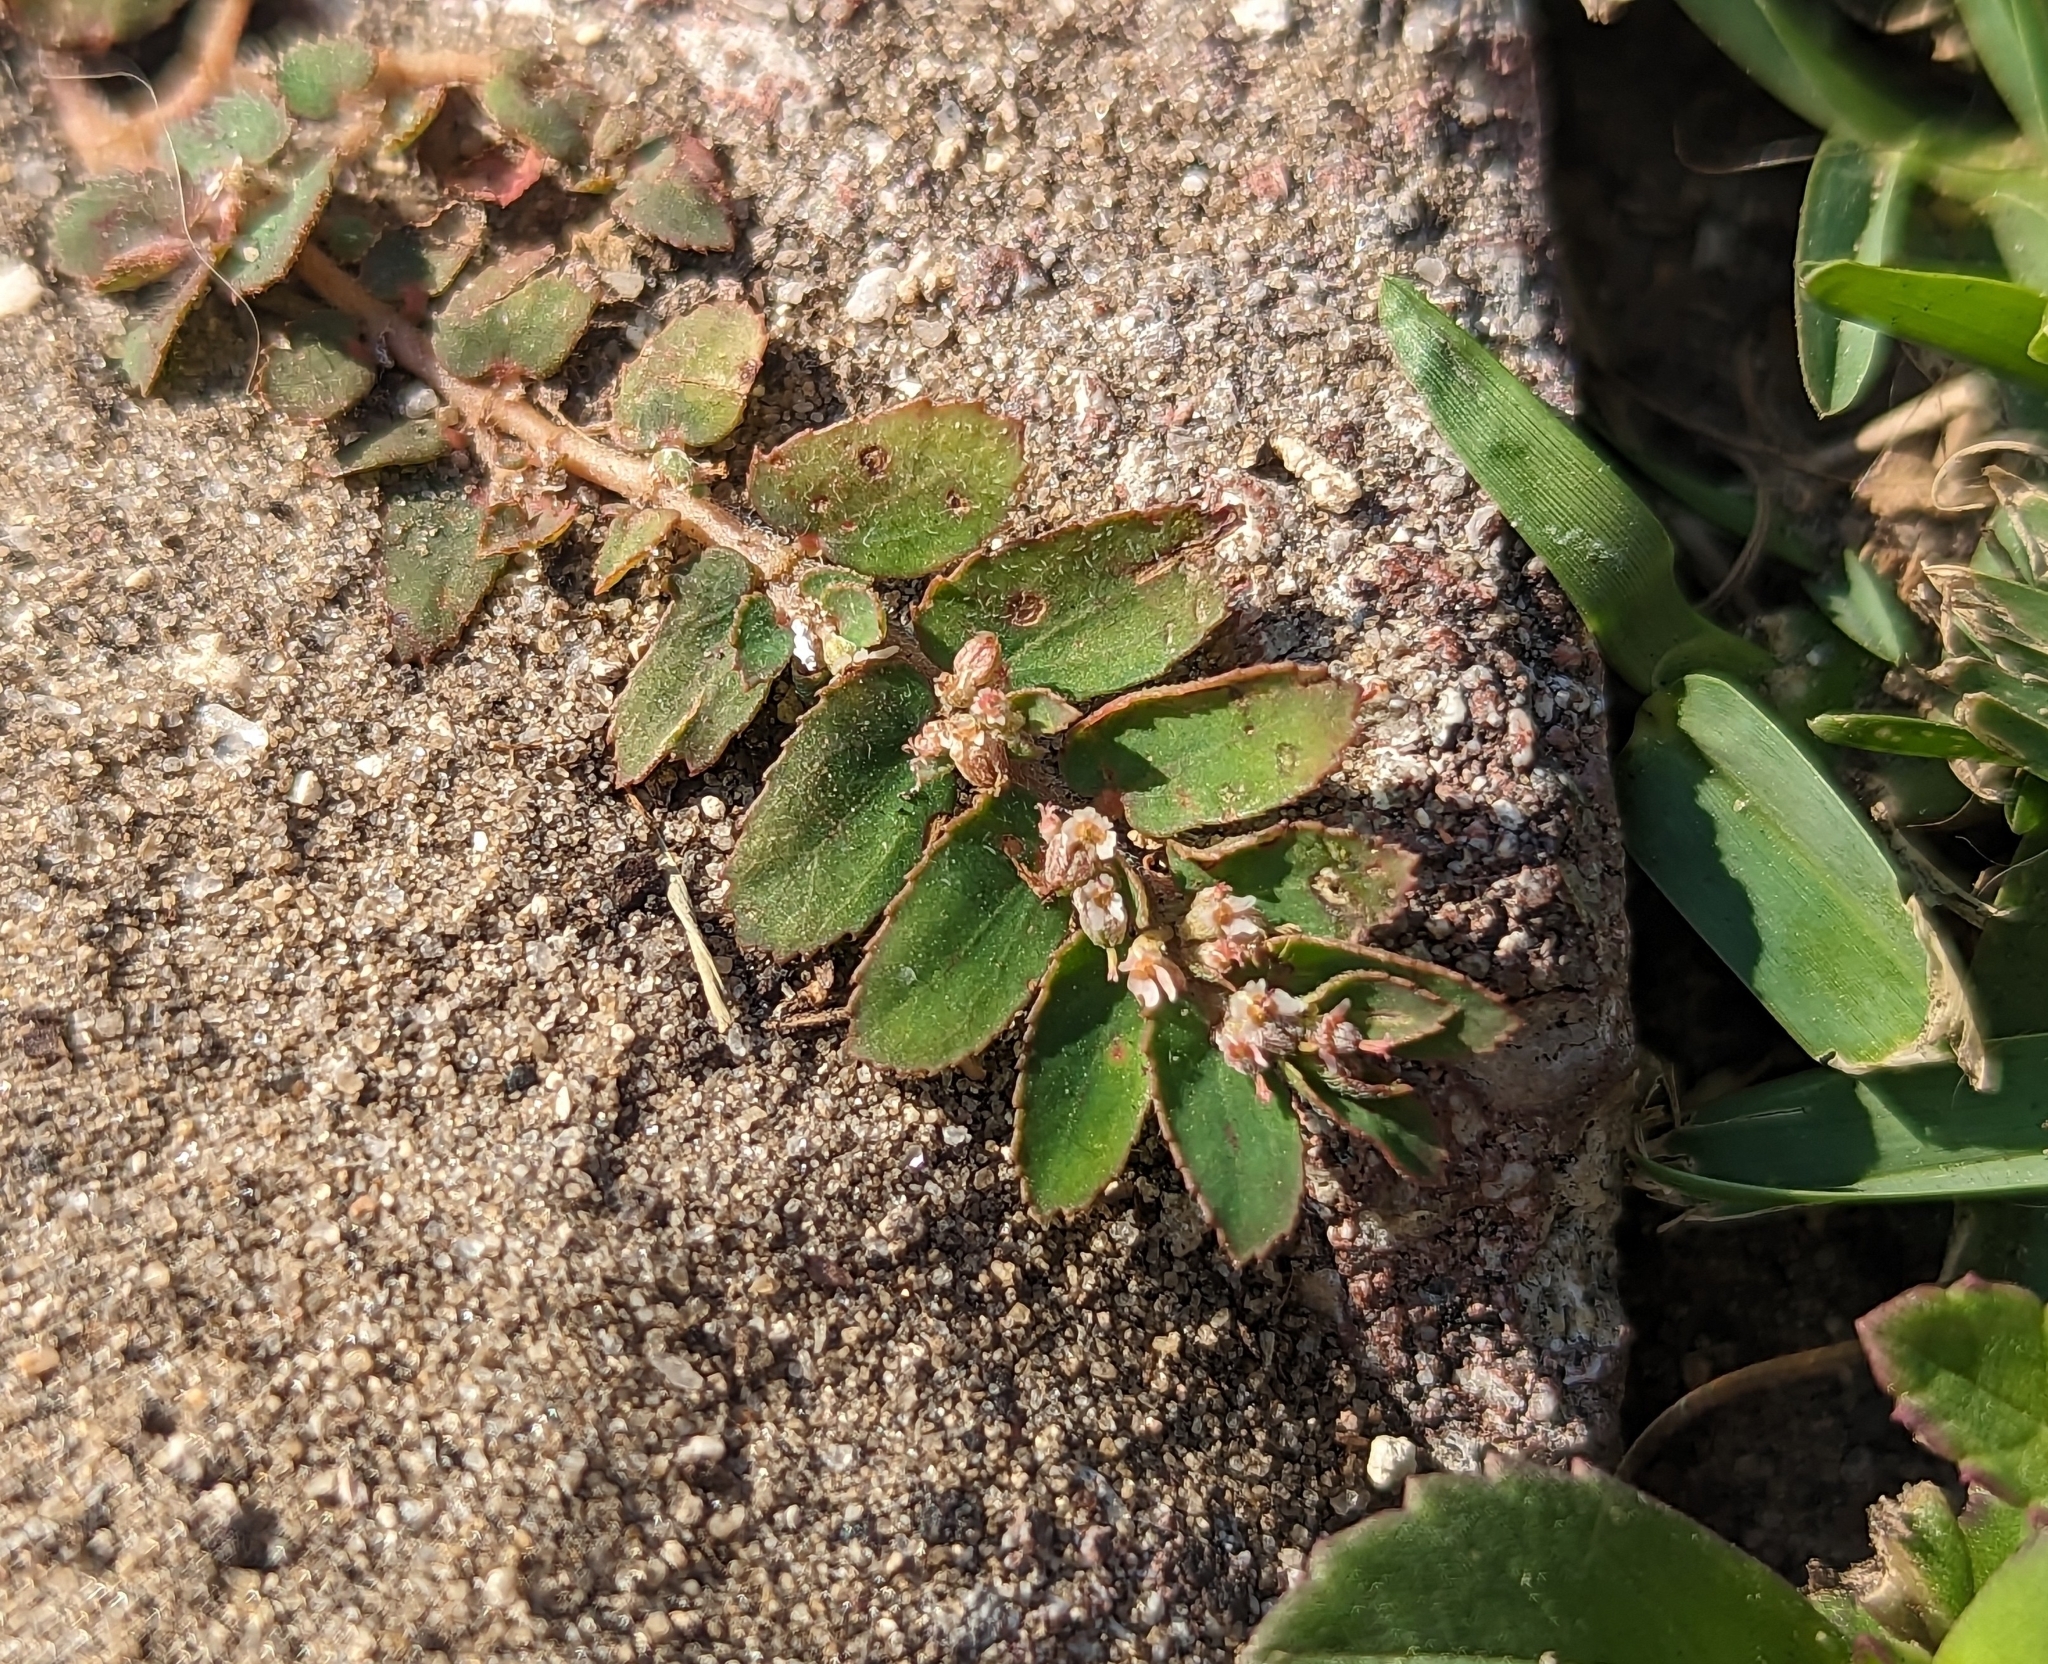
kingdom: Plantae
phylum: Tracheophyta
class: Magnoliopsida
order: Malpighiales
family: Euphorbiaceae
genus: Euphorbia
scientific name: Euphorbia thymifolia
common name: Gulf sandmat
